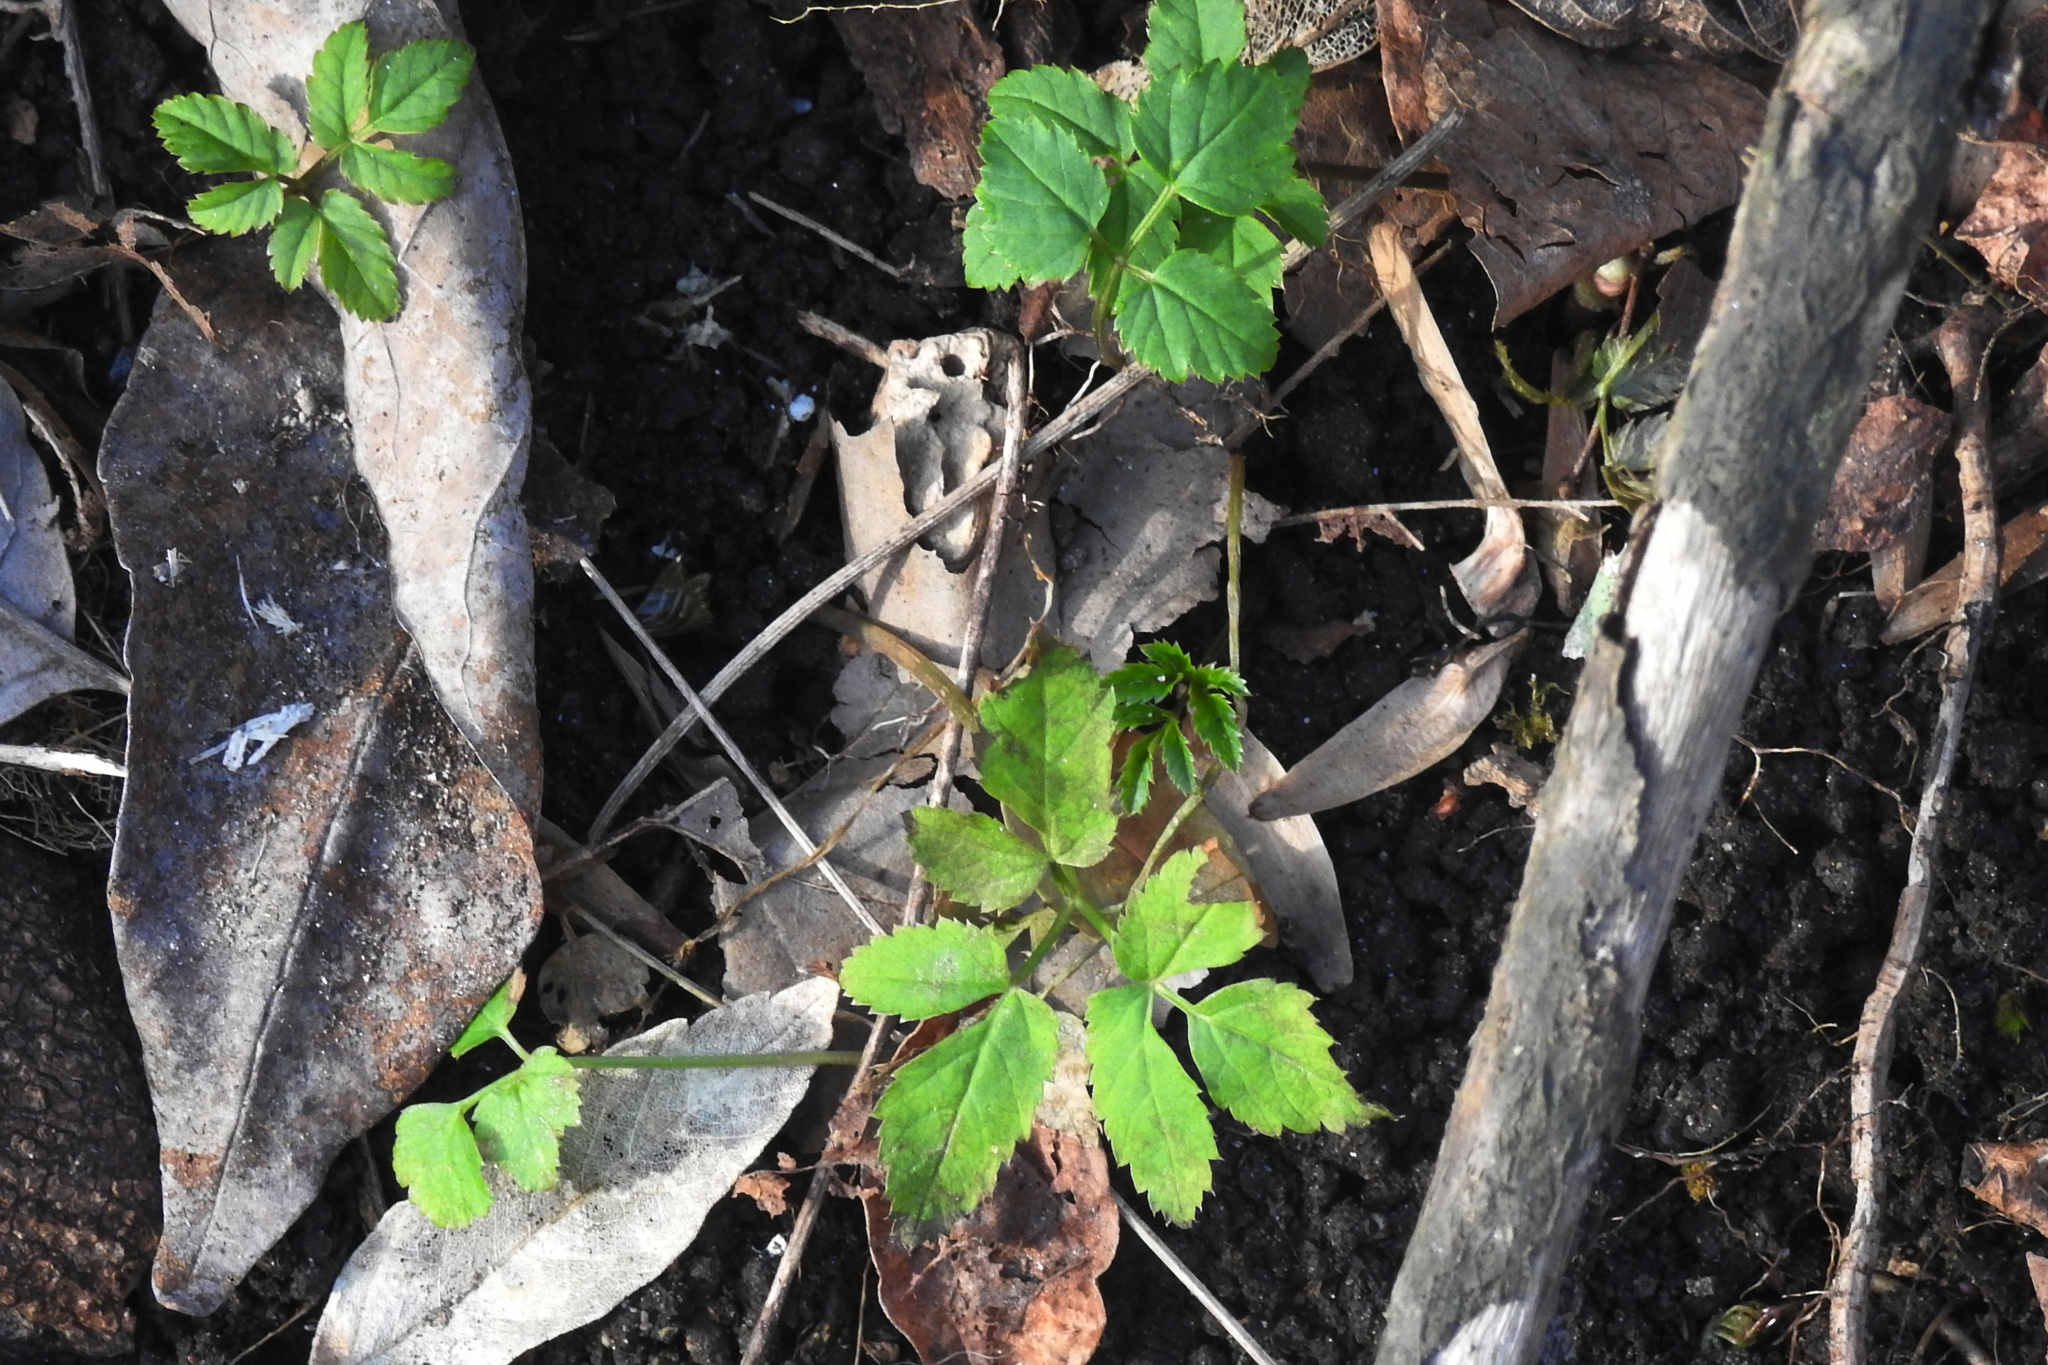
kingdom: Plantae
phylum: Tracheophyta
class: Magnoliopsida
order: Apiales
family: Apiaceae
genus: Aegopodium
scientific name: Aegopodium podagraria
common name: Ground-elder
